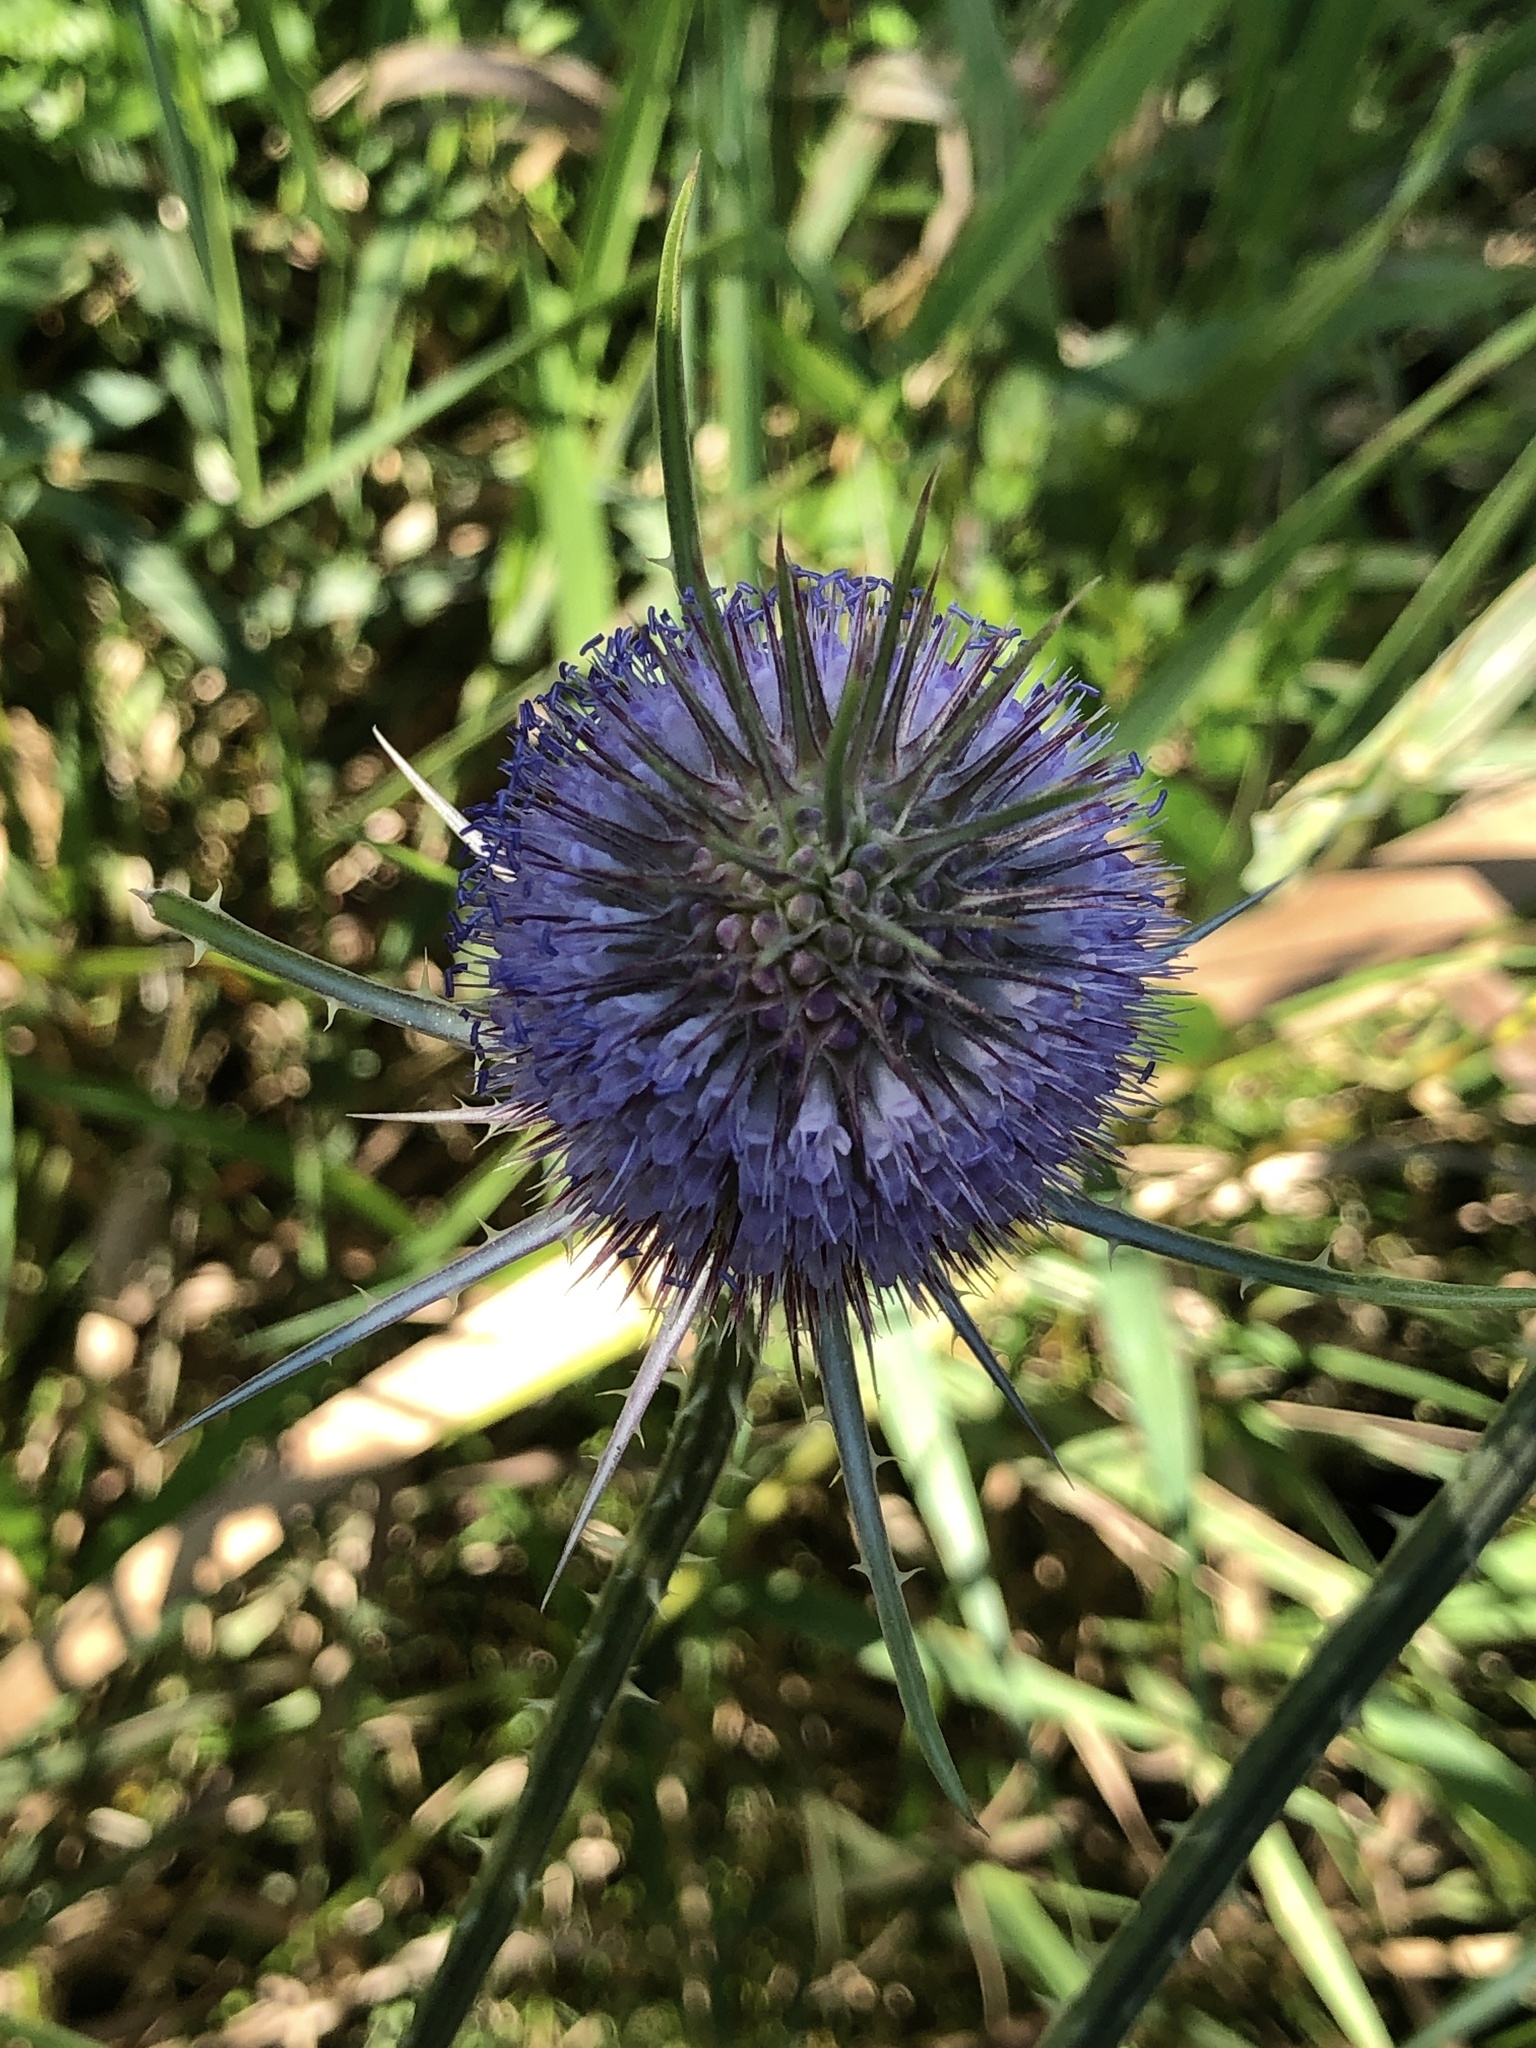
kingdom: Plantae
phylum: Tracheophyta
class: Magnoliopsida
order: Dipsacales
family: Caprifoliaceae
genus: Dipsacus
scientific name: Dipsacus fullonum
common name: Teasel
